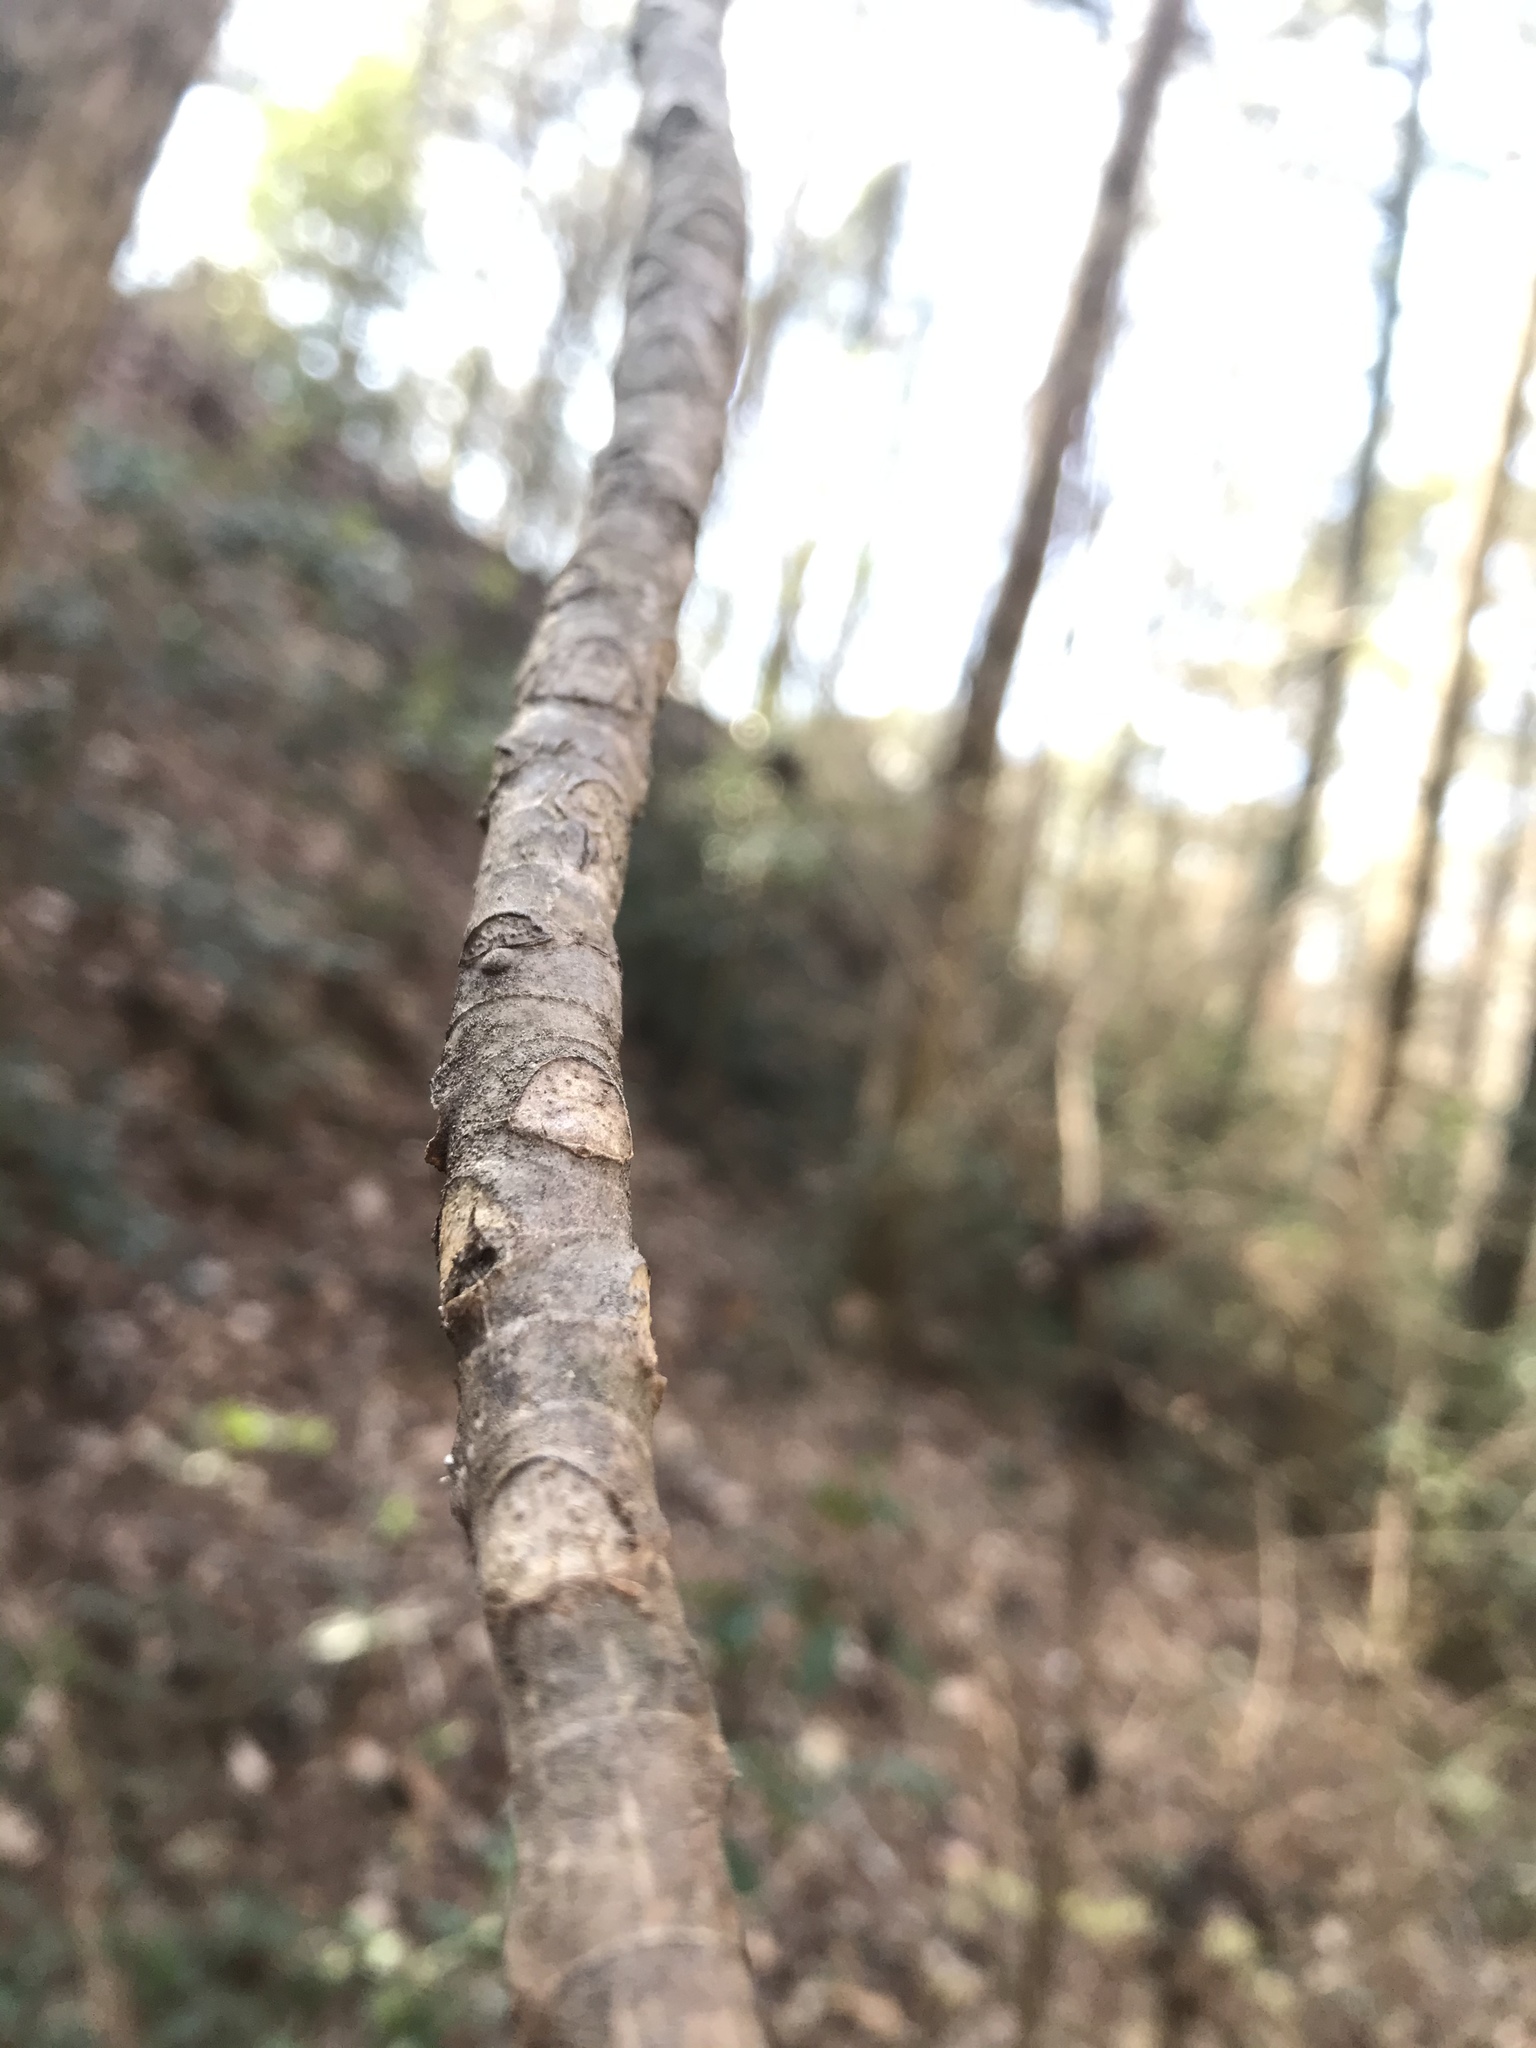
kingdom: Plantae
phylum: Tracheophyta
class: Magnoliopsida
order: Magnoliales
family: Magnoliaceae
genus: Magnolia
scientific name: Magnolia macrophylla
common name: Big-leaf magnolia
